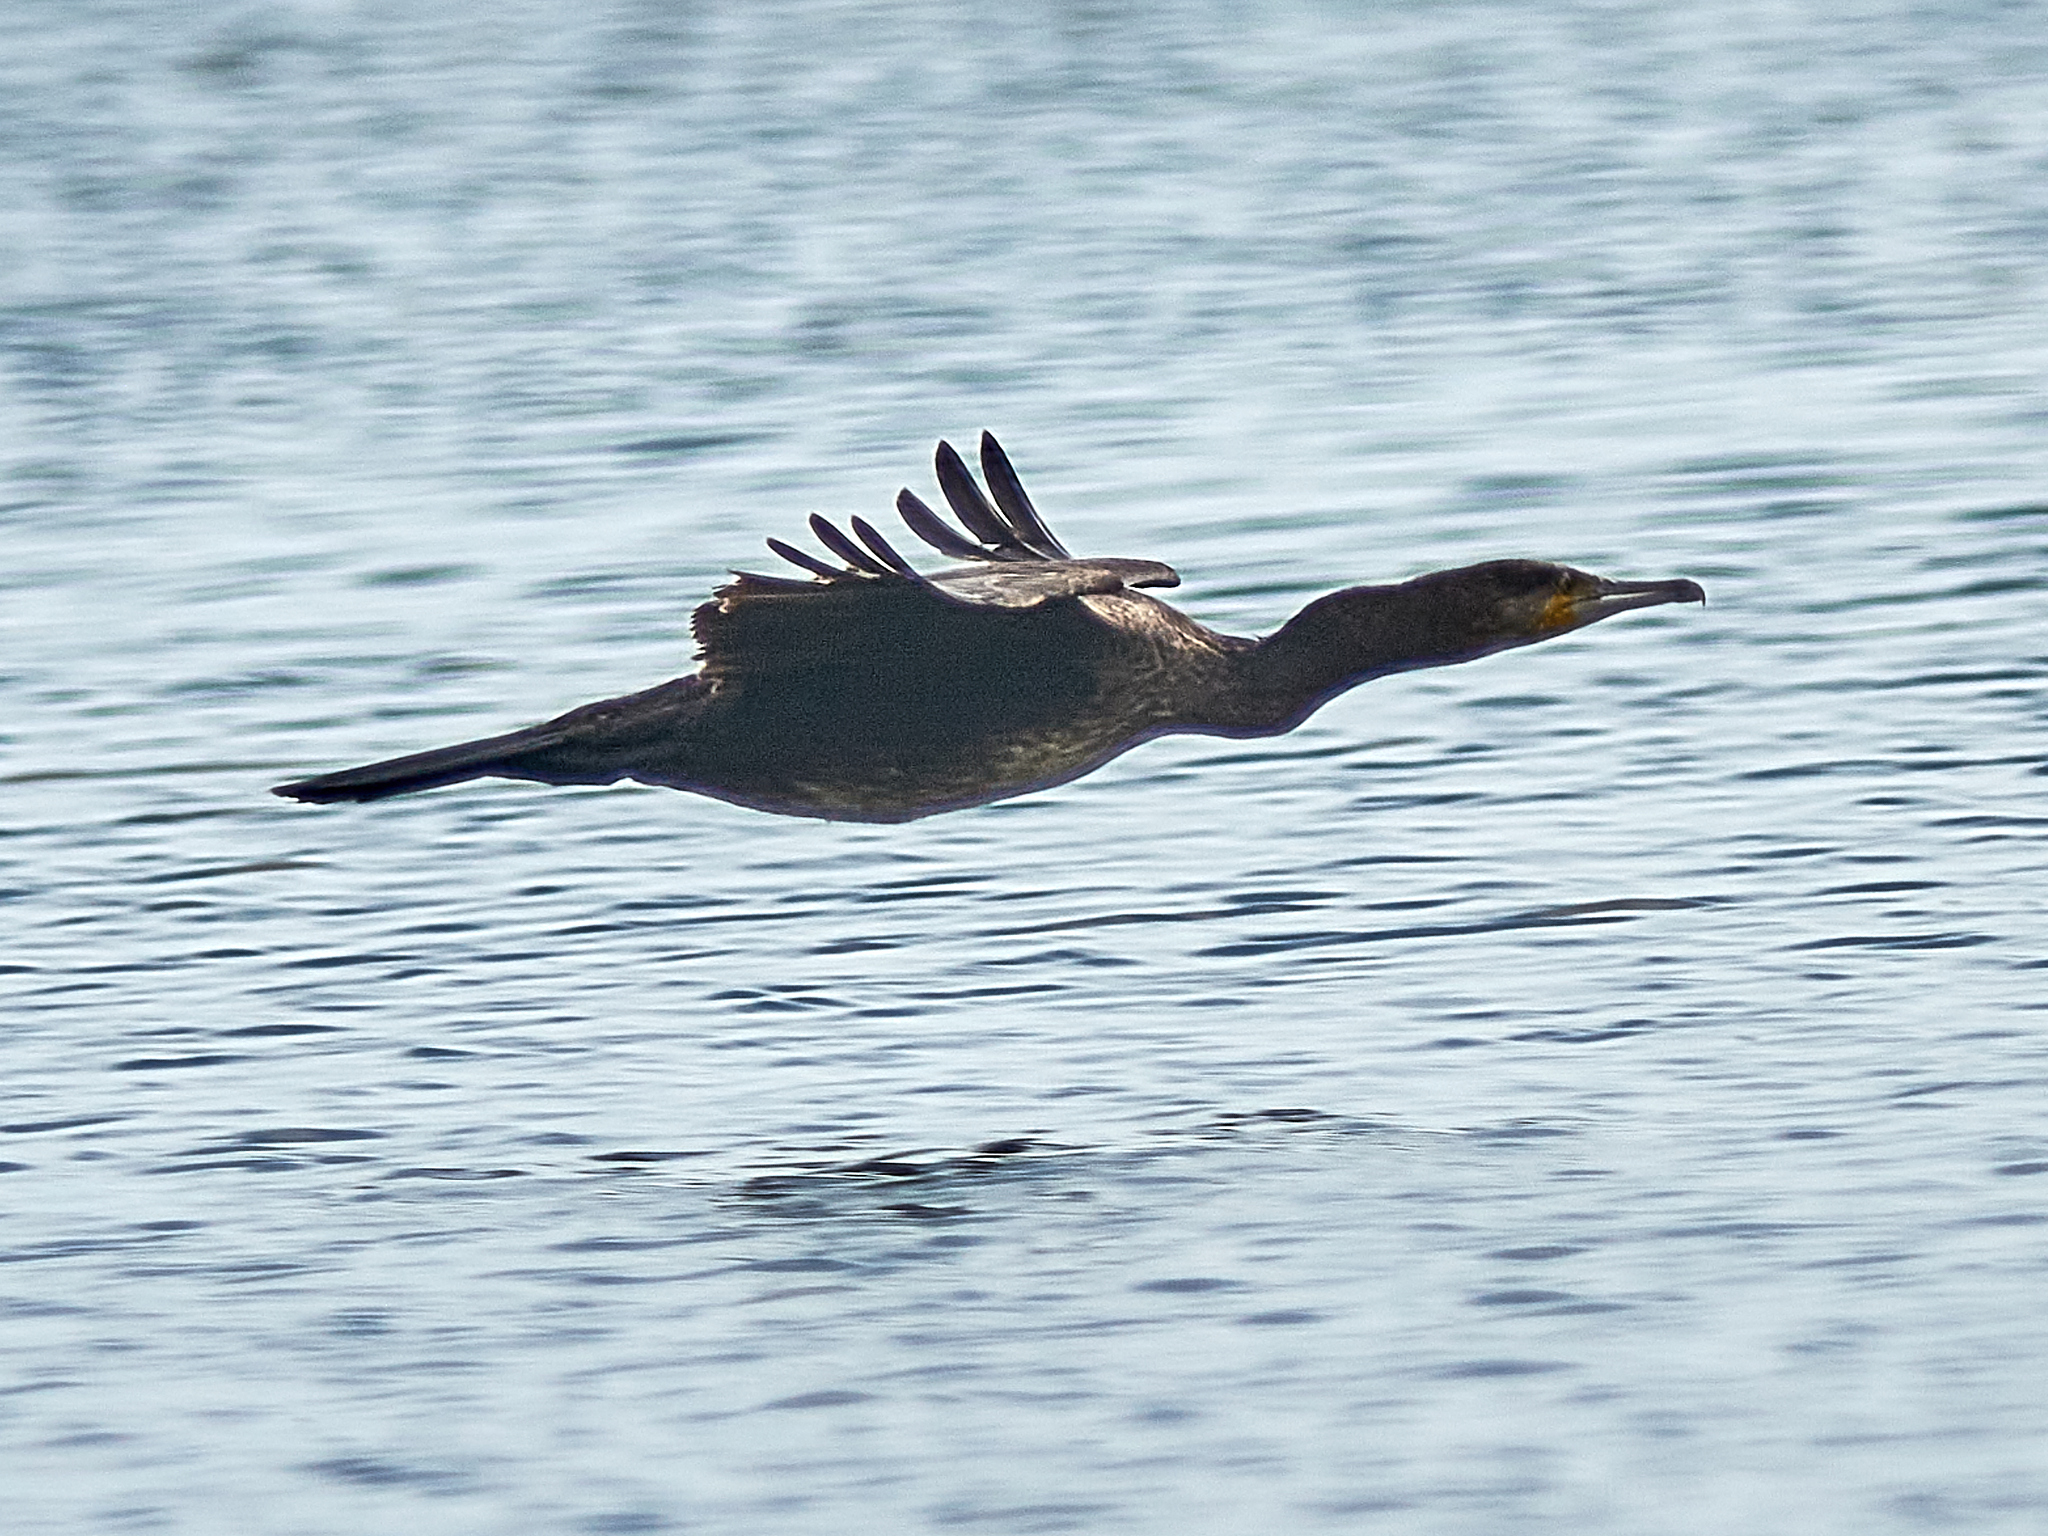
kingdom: Animalia
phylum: Chordata
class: Aves
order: Suliformes
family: Phalacrocoracidae
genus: Phalacrocorax
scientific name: Phalacrocorax carbo
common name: Great cormorant
